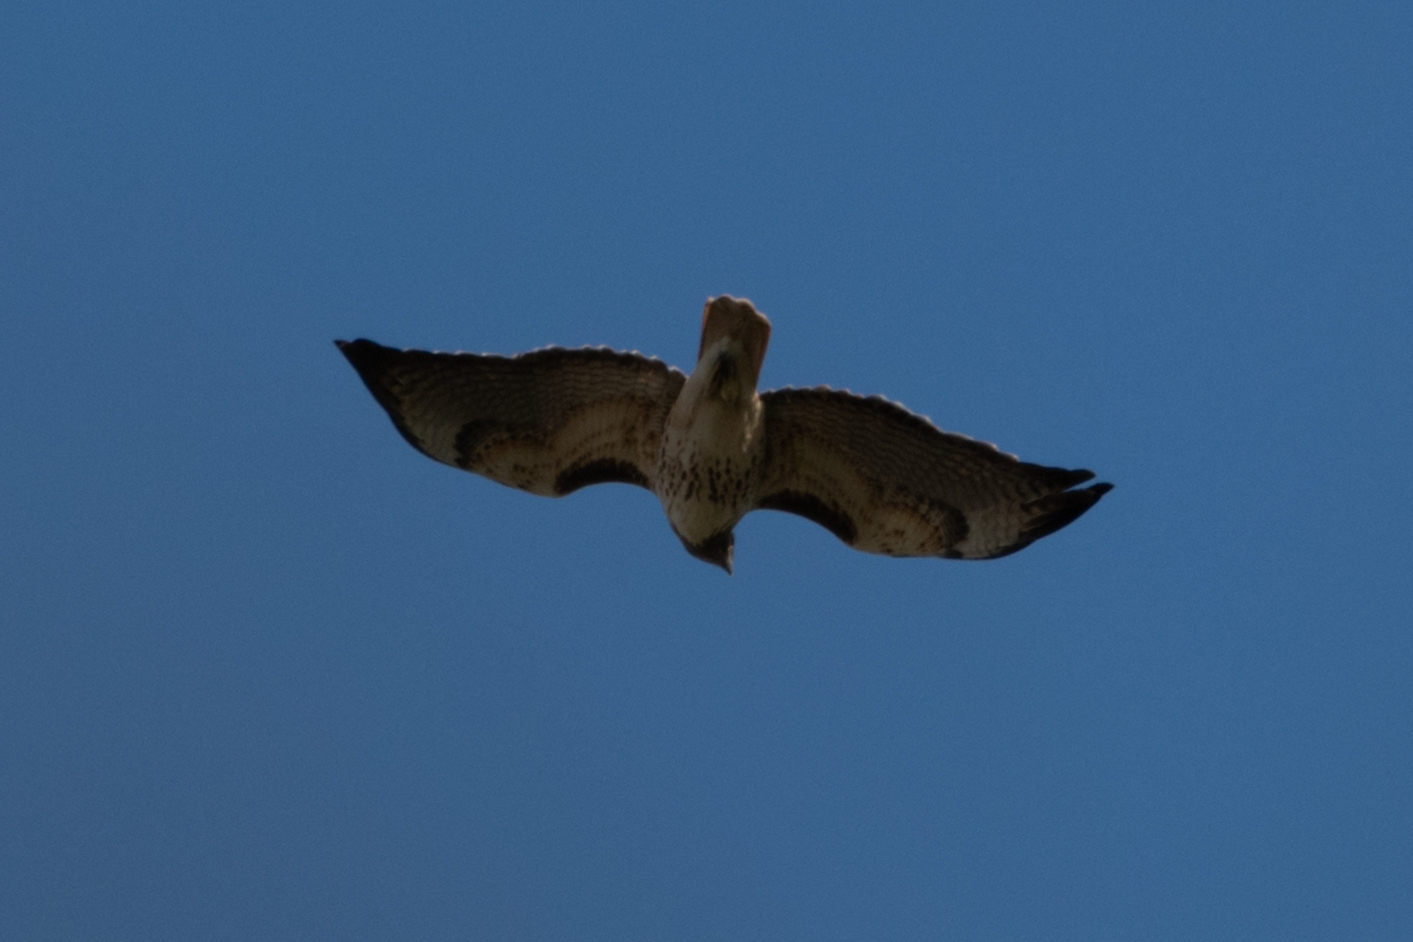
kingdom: Animalia
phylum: Chordata
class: Aves
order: Accipitriformes
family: Accipitridae
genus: Buteo
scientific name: Buteo jamaicensis
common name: Red-tailed hawk
